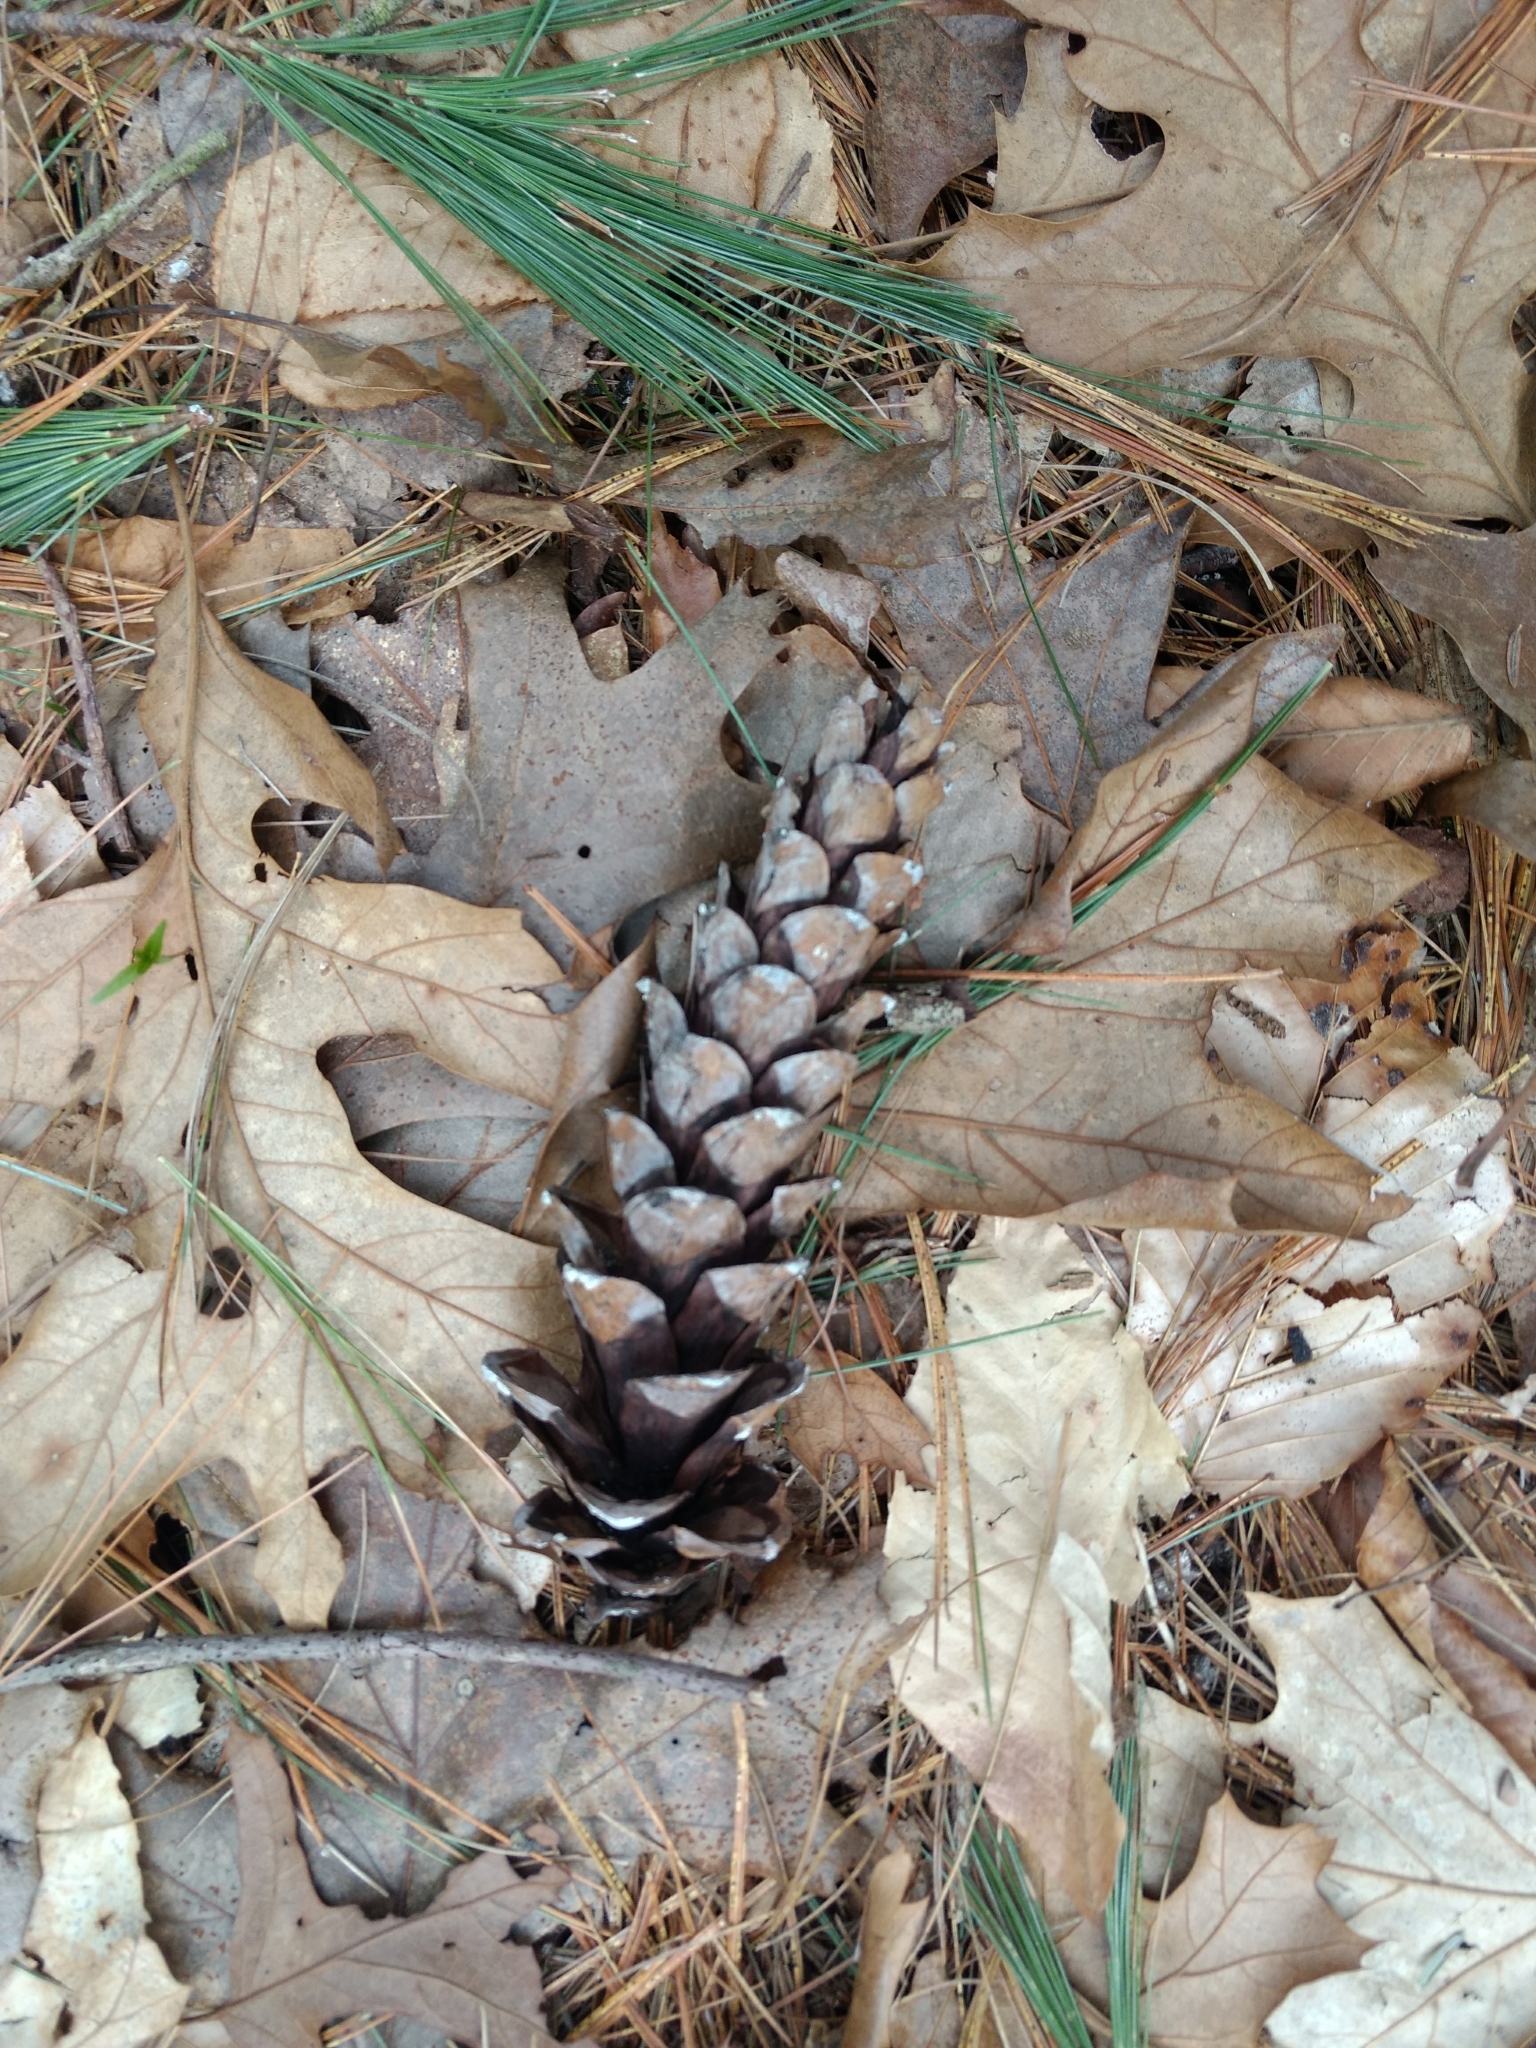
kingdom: Plantae
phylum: Tracheophyta
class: Pinopsida
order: Pinales
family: Pinaceae
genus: Pinus
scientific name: Pinus strobus
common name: Weymouth pine
